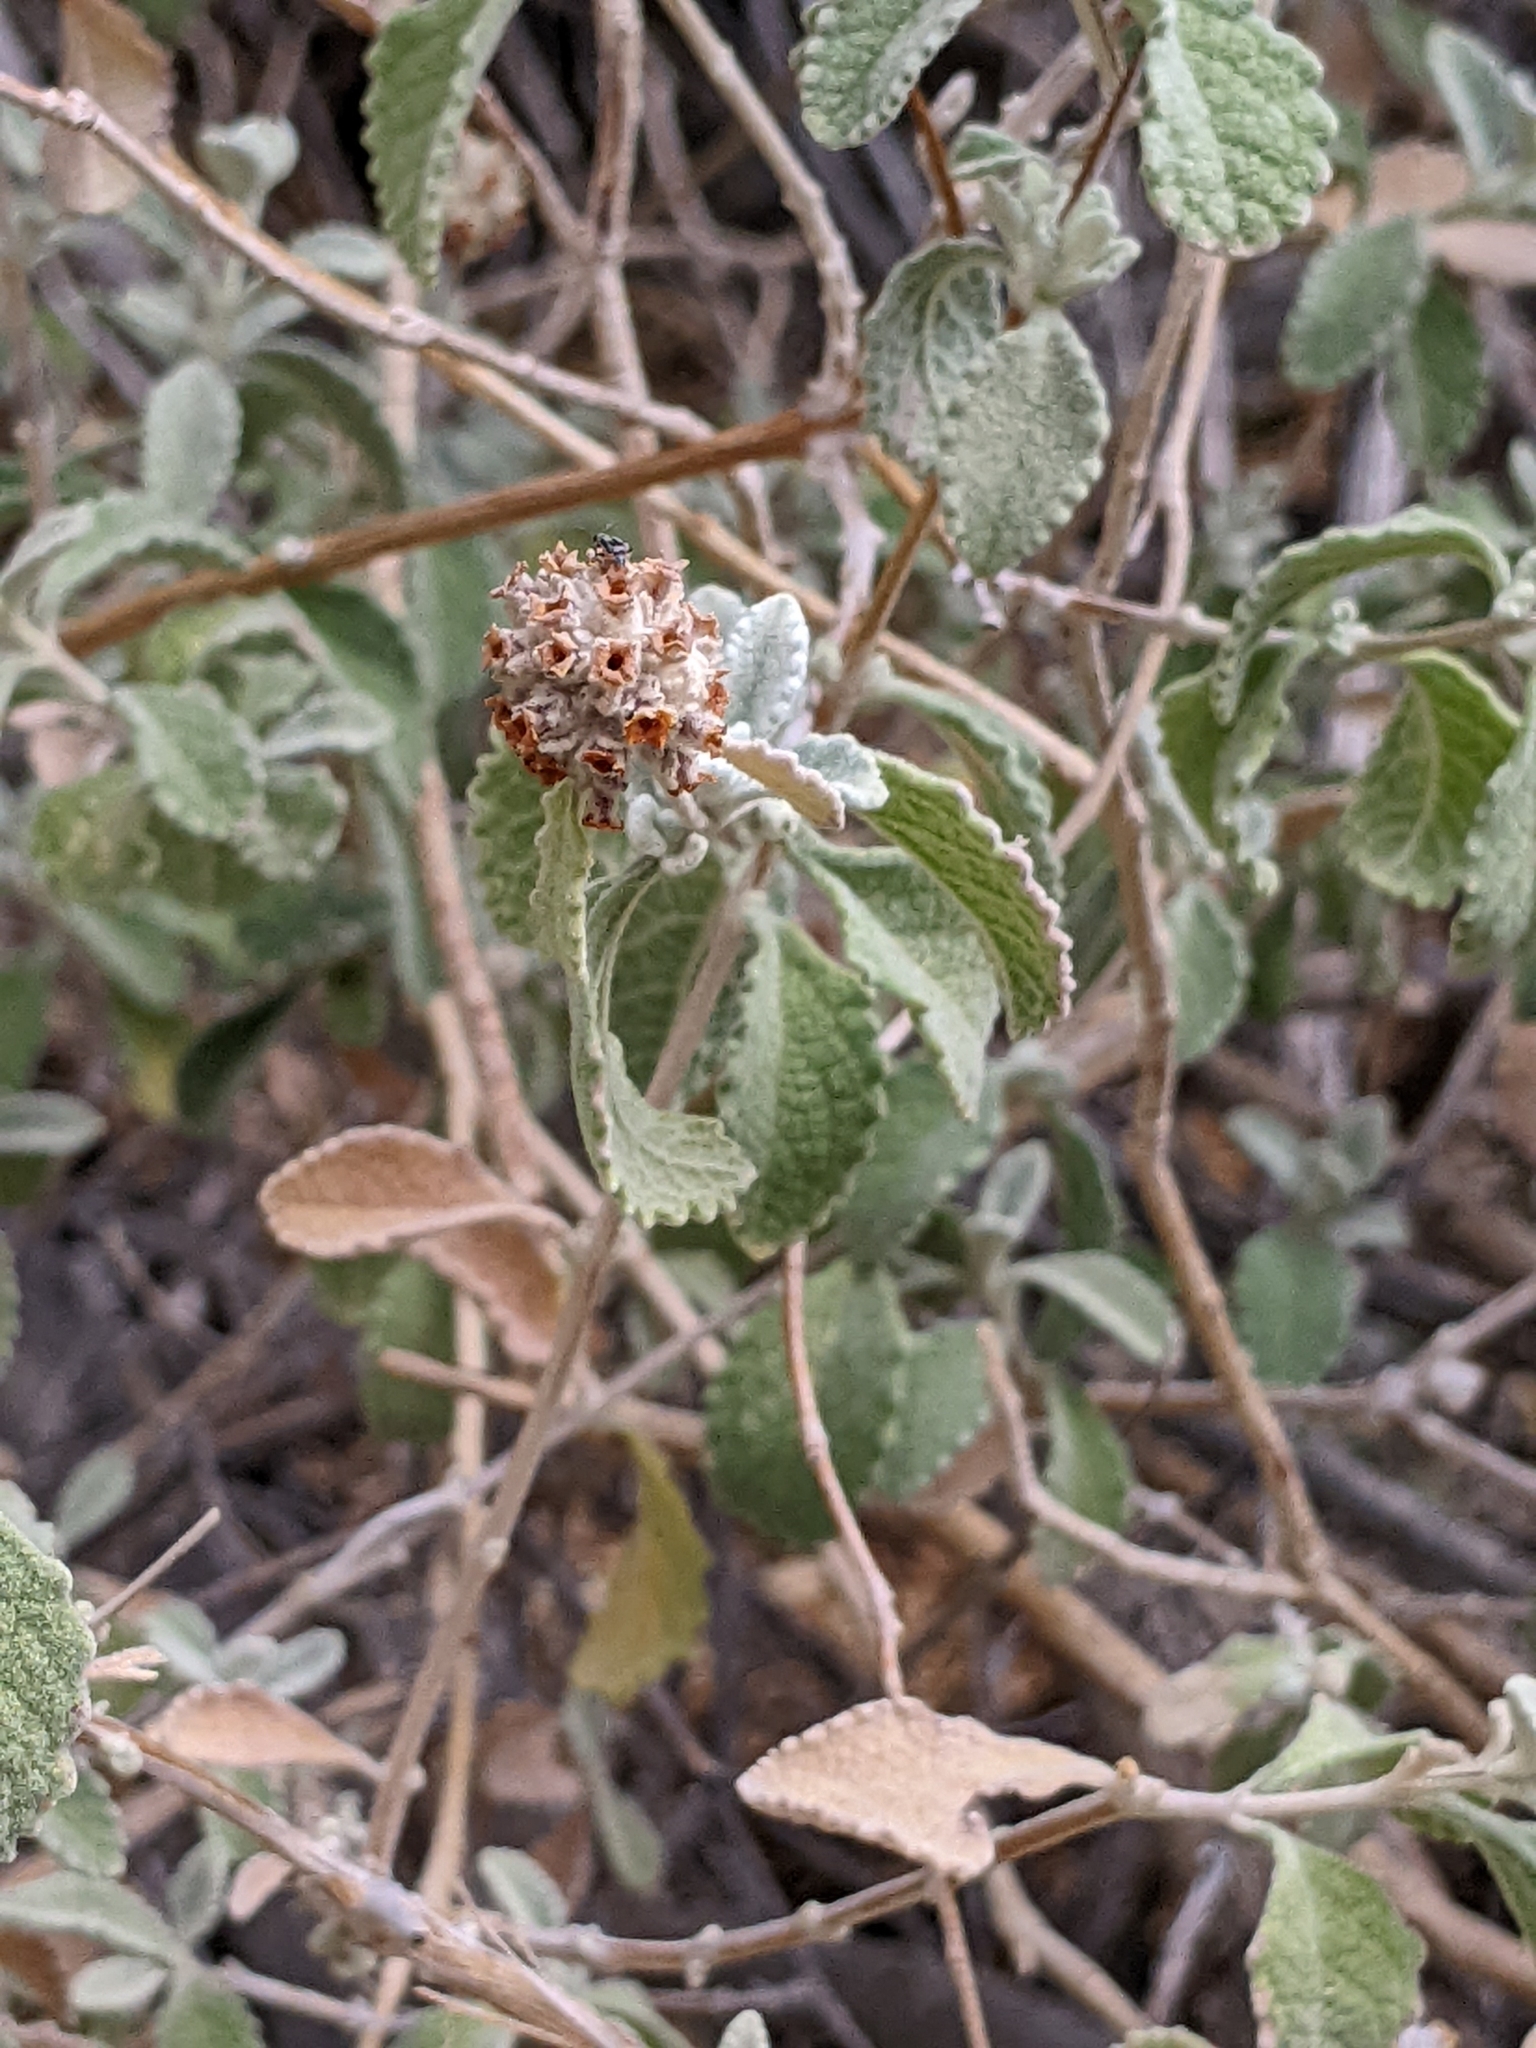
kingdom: Plantae
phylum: Tracheophyta
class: Magnoliopsida
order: Lamiales
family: Scrophulariaceae
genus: Buddleja
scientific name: Buddleja marrubiifolia
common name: Woolly butterfly-bush
